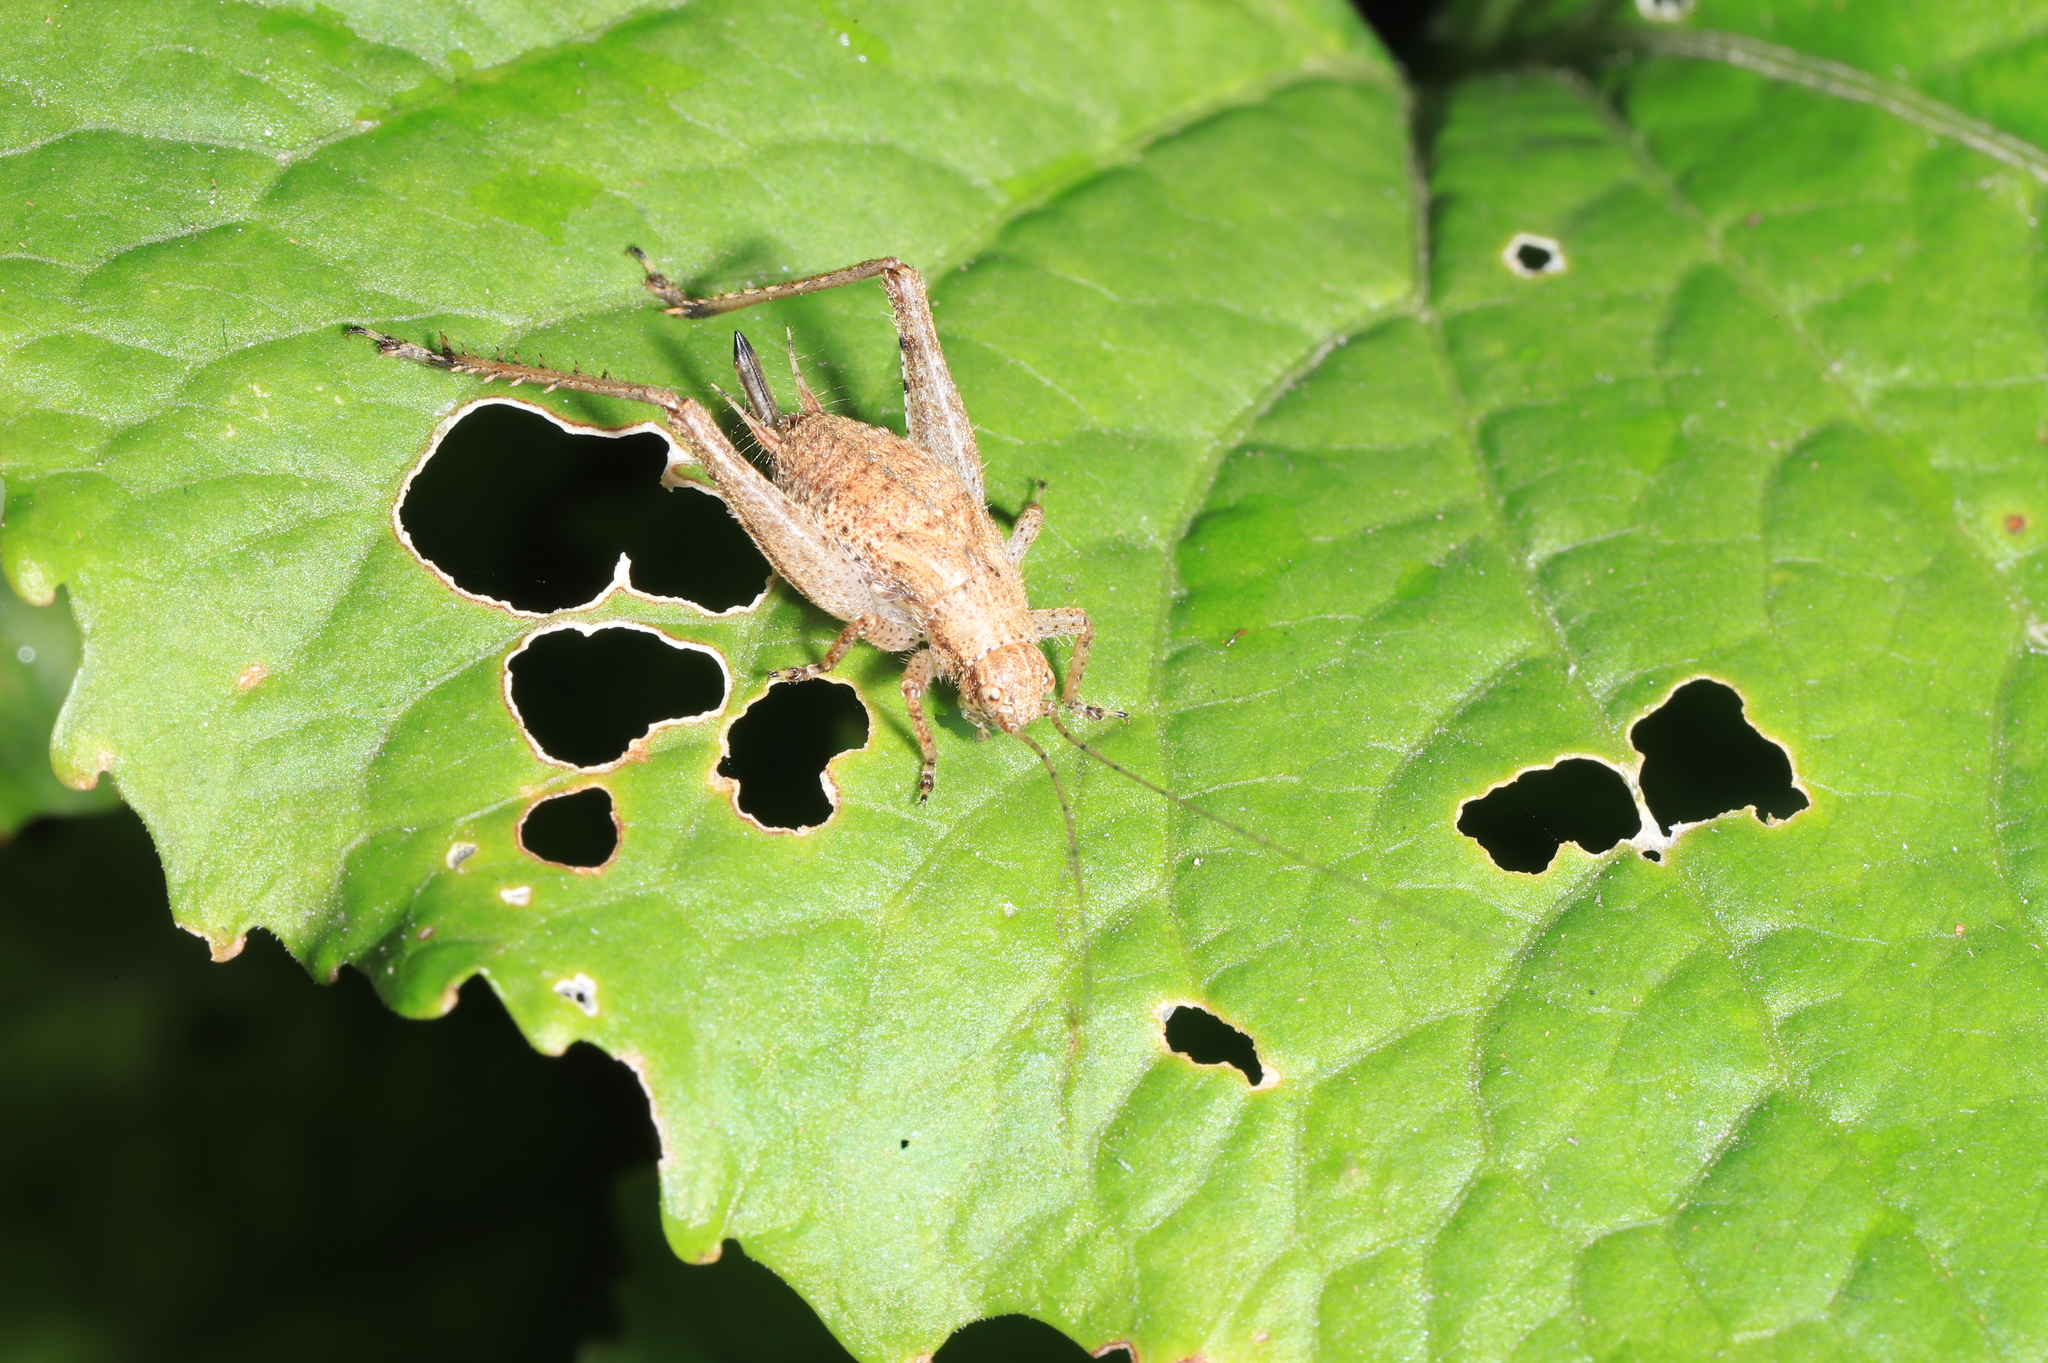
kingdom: Animalia
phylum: Arthropoda
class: Insecta
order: Orthoptera
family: Gryllidae
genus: Hapithus
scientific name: Hapithus agitator
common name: Restless bush cricket
